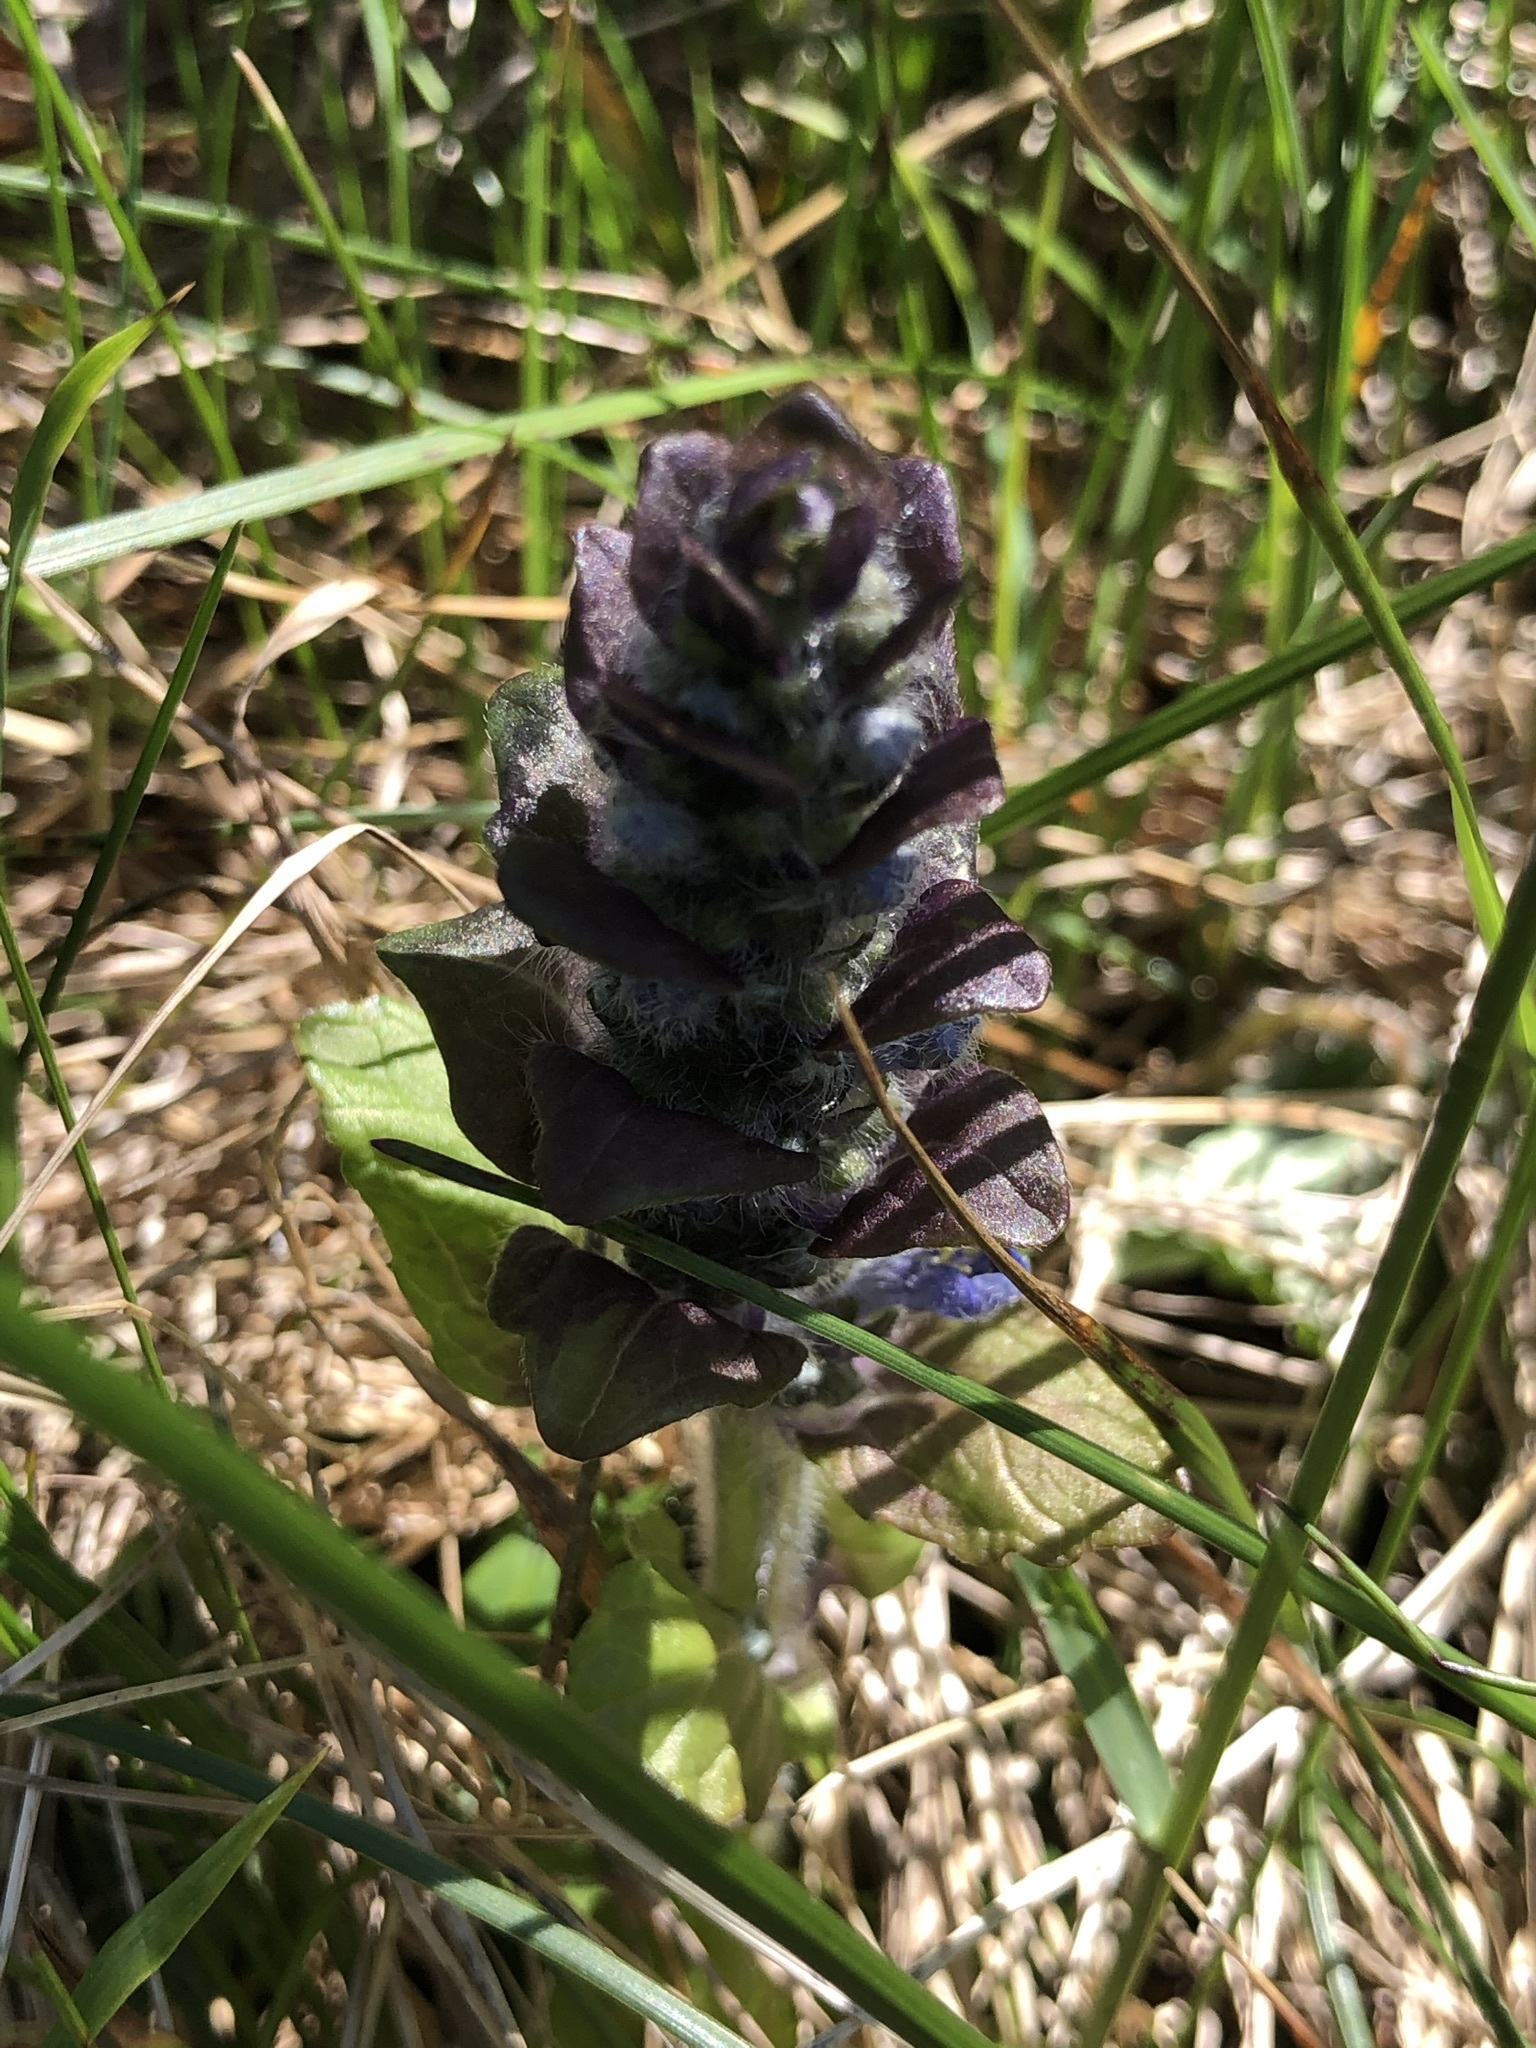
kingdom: Plantae
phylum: Tracheophyta
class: Magnoliopsida
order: Lamiales
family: Lamiaceae
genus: Ajuga
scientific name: Ajuga reptans
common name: Bugle
